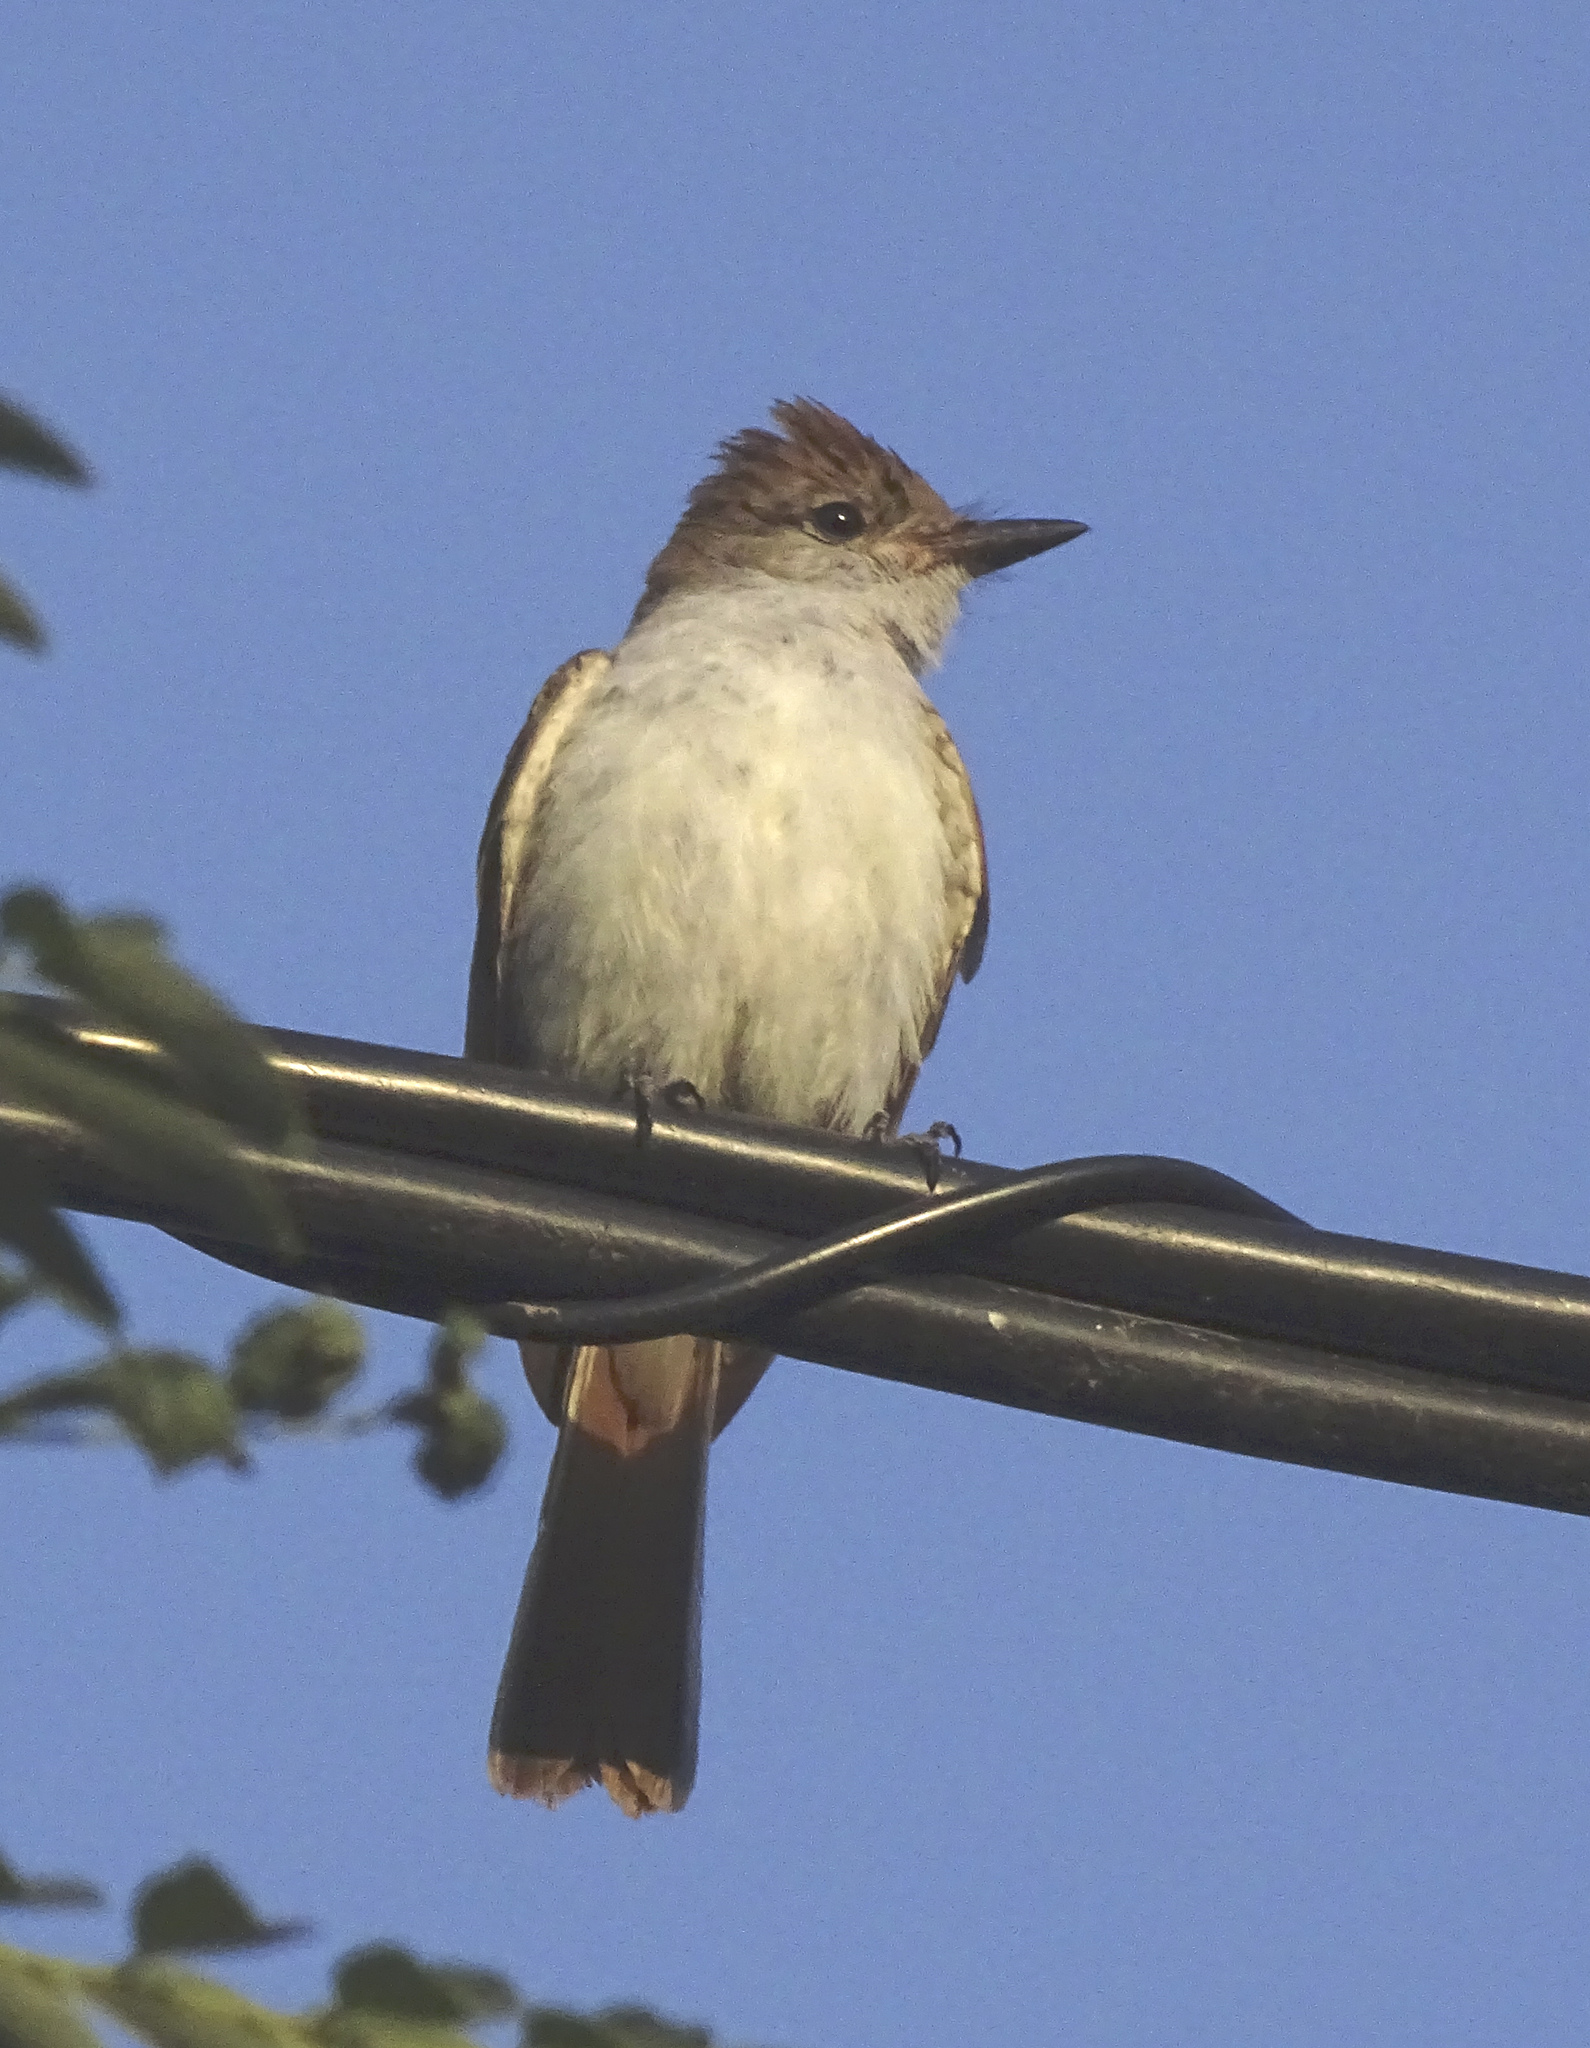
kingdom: Animalia
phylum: Chordata
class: Aves
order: Passeriformes
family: Tyrannidae
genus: Myiarchus
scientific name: Myiarchus cinerascens
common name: Ash-throated flycatcher
